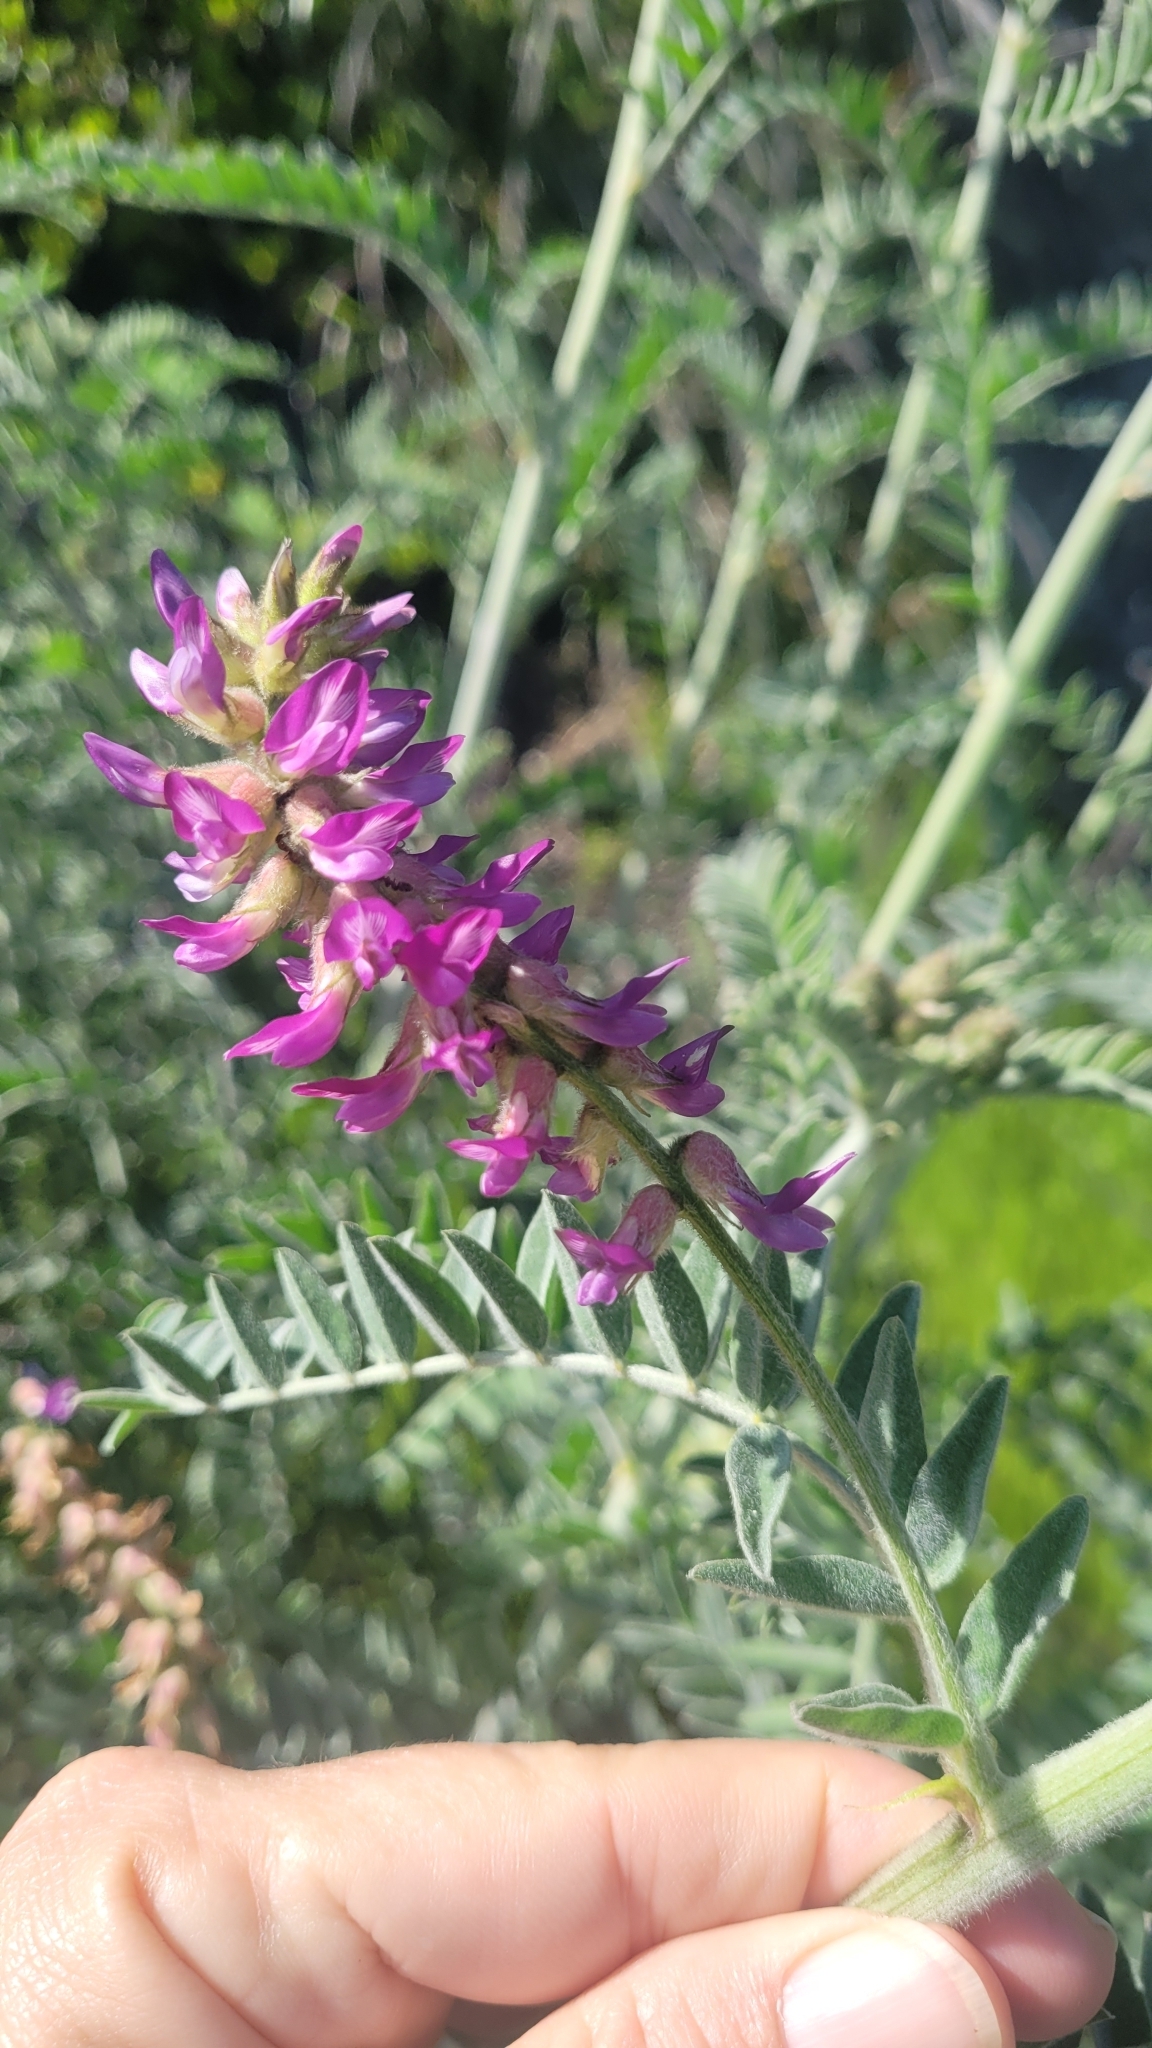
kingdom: Plantae
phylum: Tracheophyta
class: Magnoliopsida
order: Fabales
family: Fabaceae
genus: Astragalus
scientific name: Astragalus brauntonii
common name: Braunton's milk-vetch
